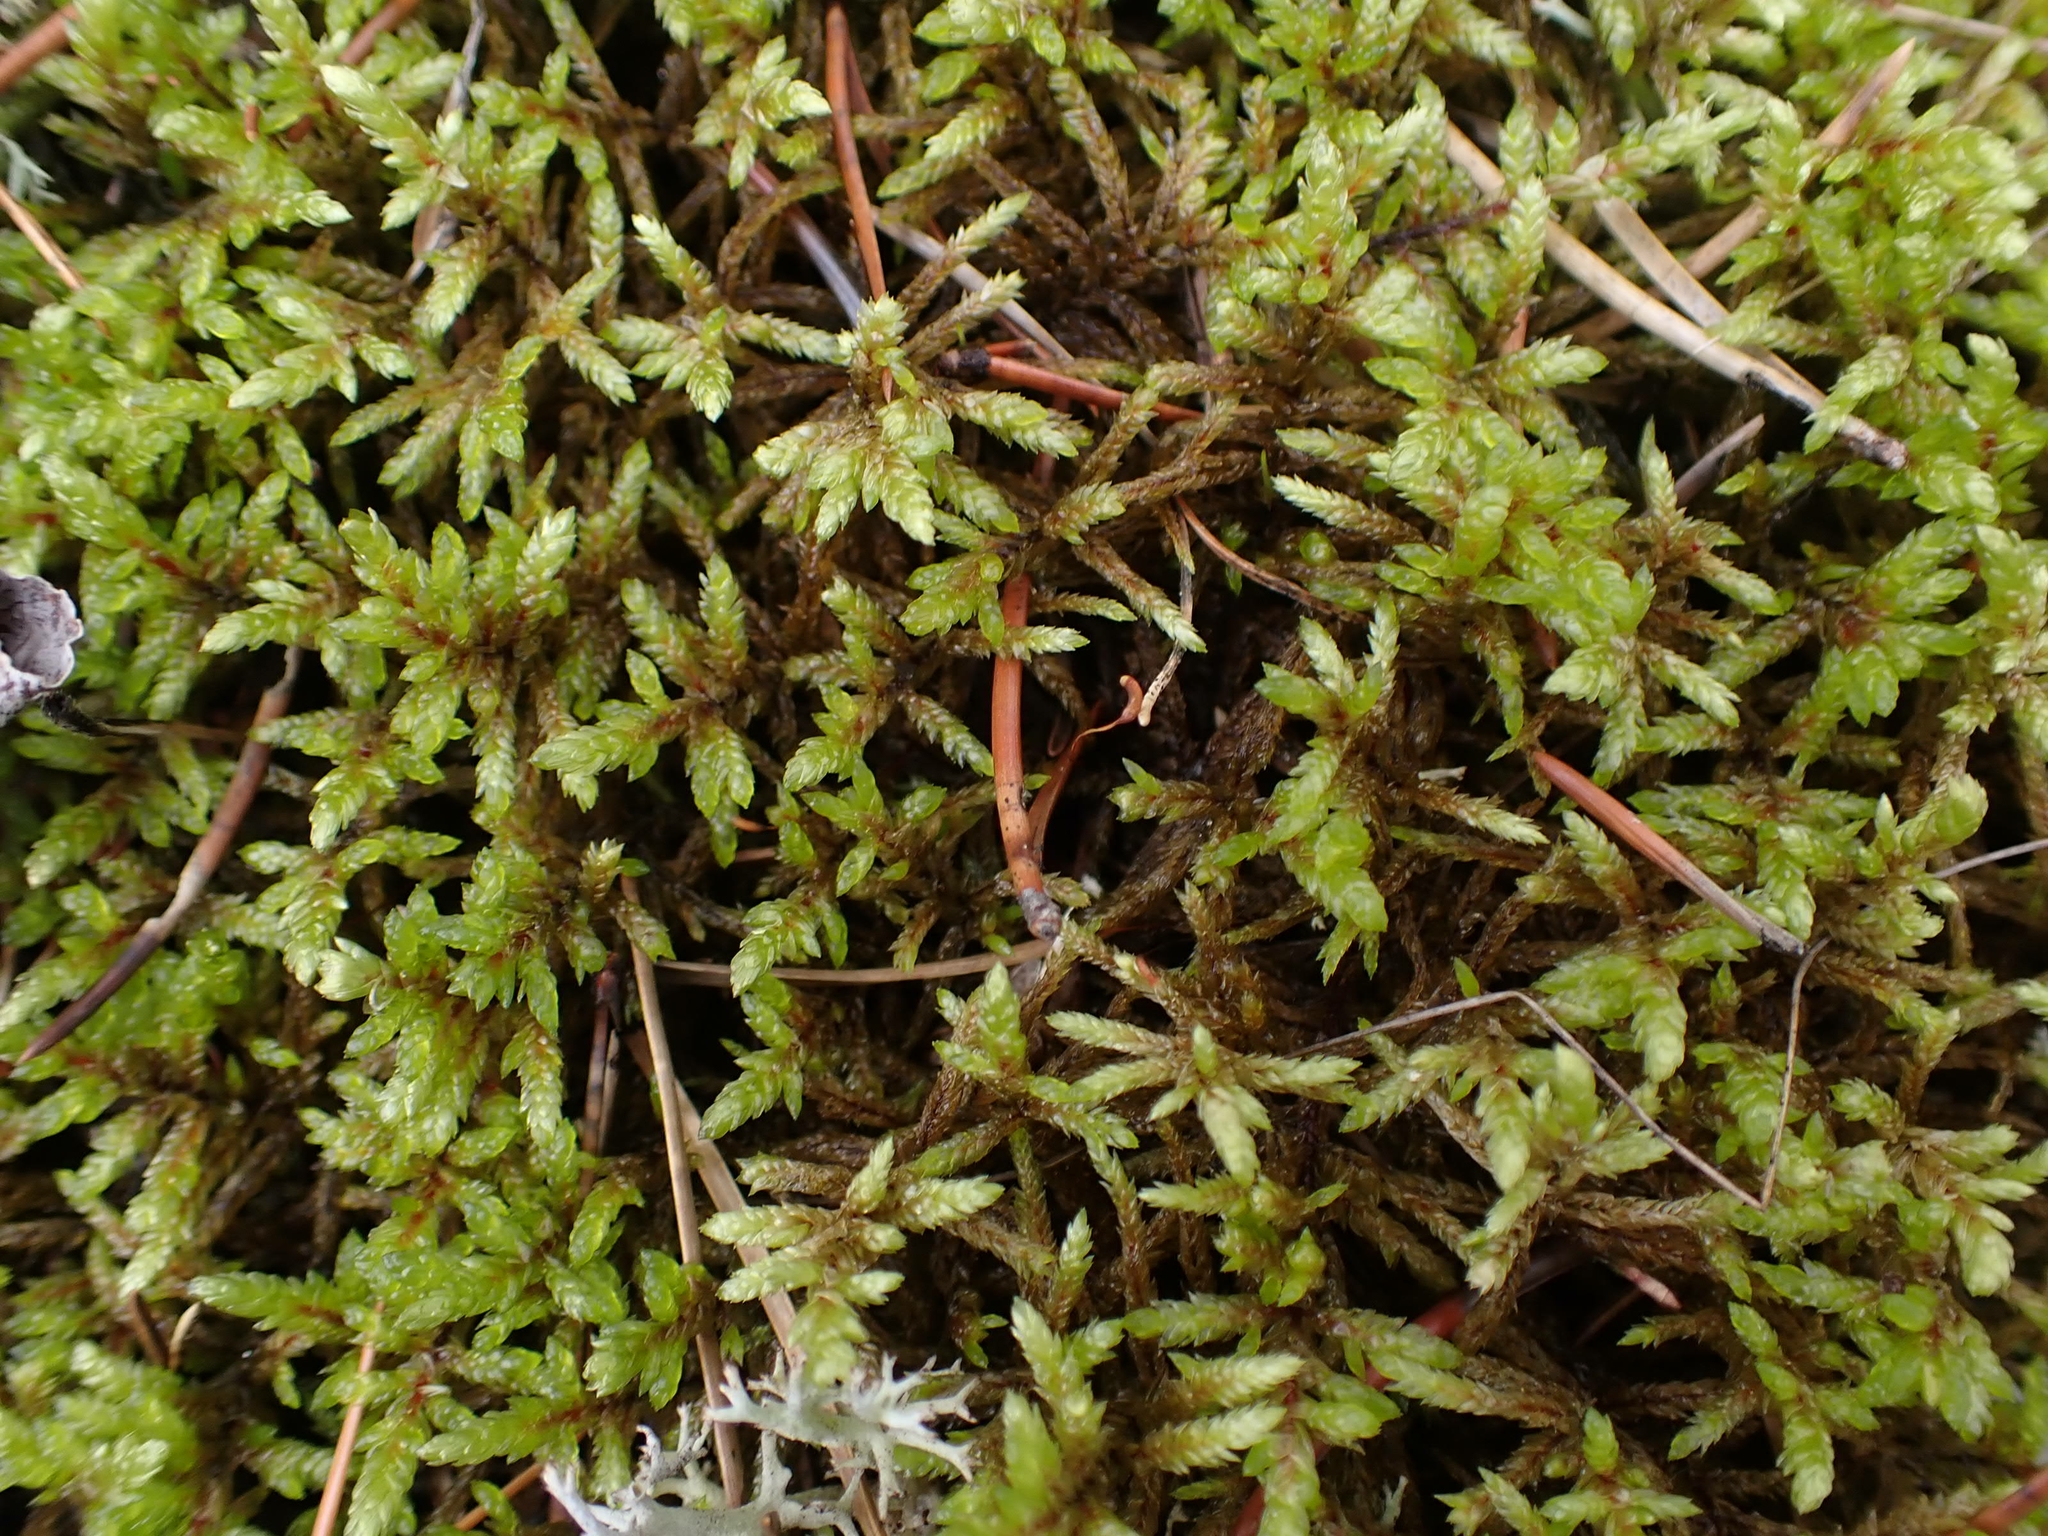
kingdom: Plantae
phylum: Bryophyta
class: Bryopsida
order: Hypnales
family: Hylocomiaceae
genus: Pleurozium
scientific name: Pleurozium schreberi
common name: Red-stemmed feather moss
